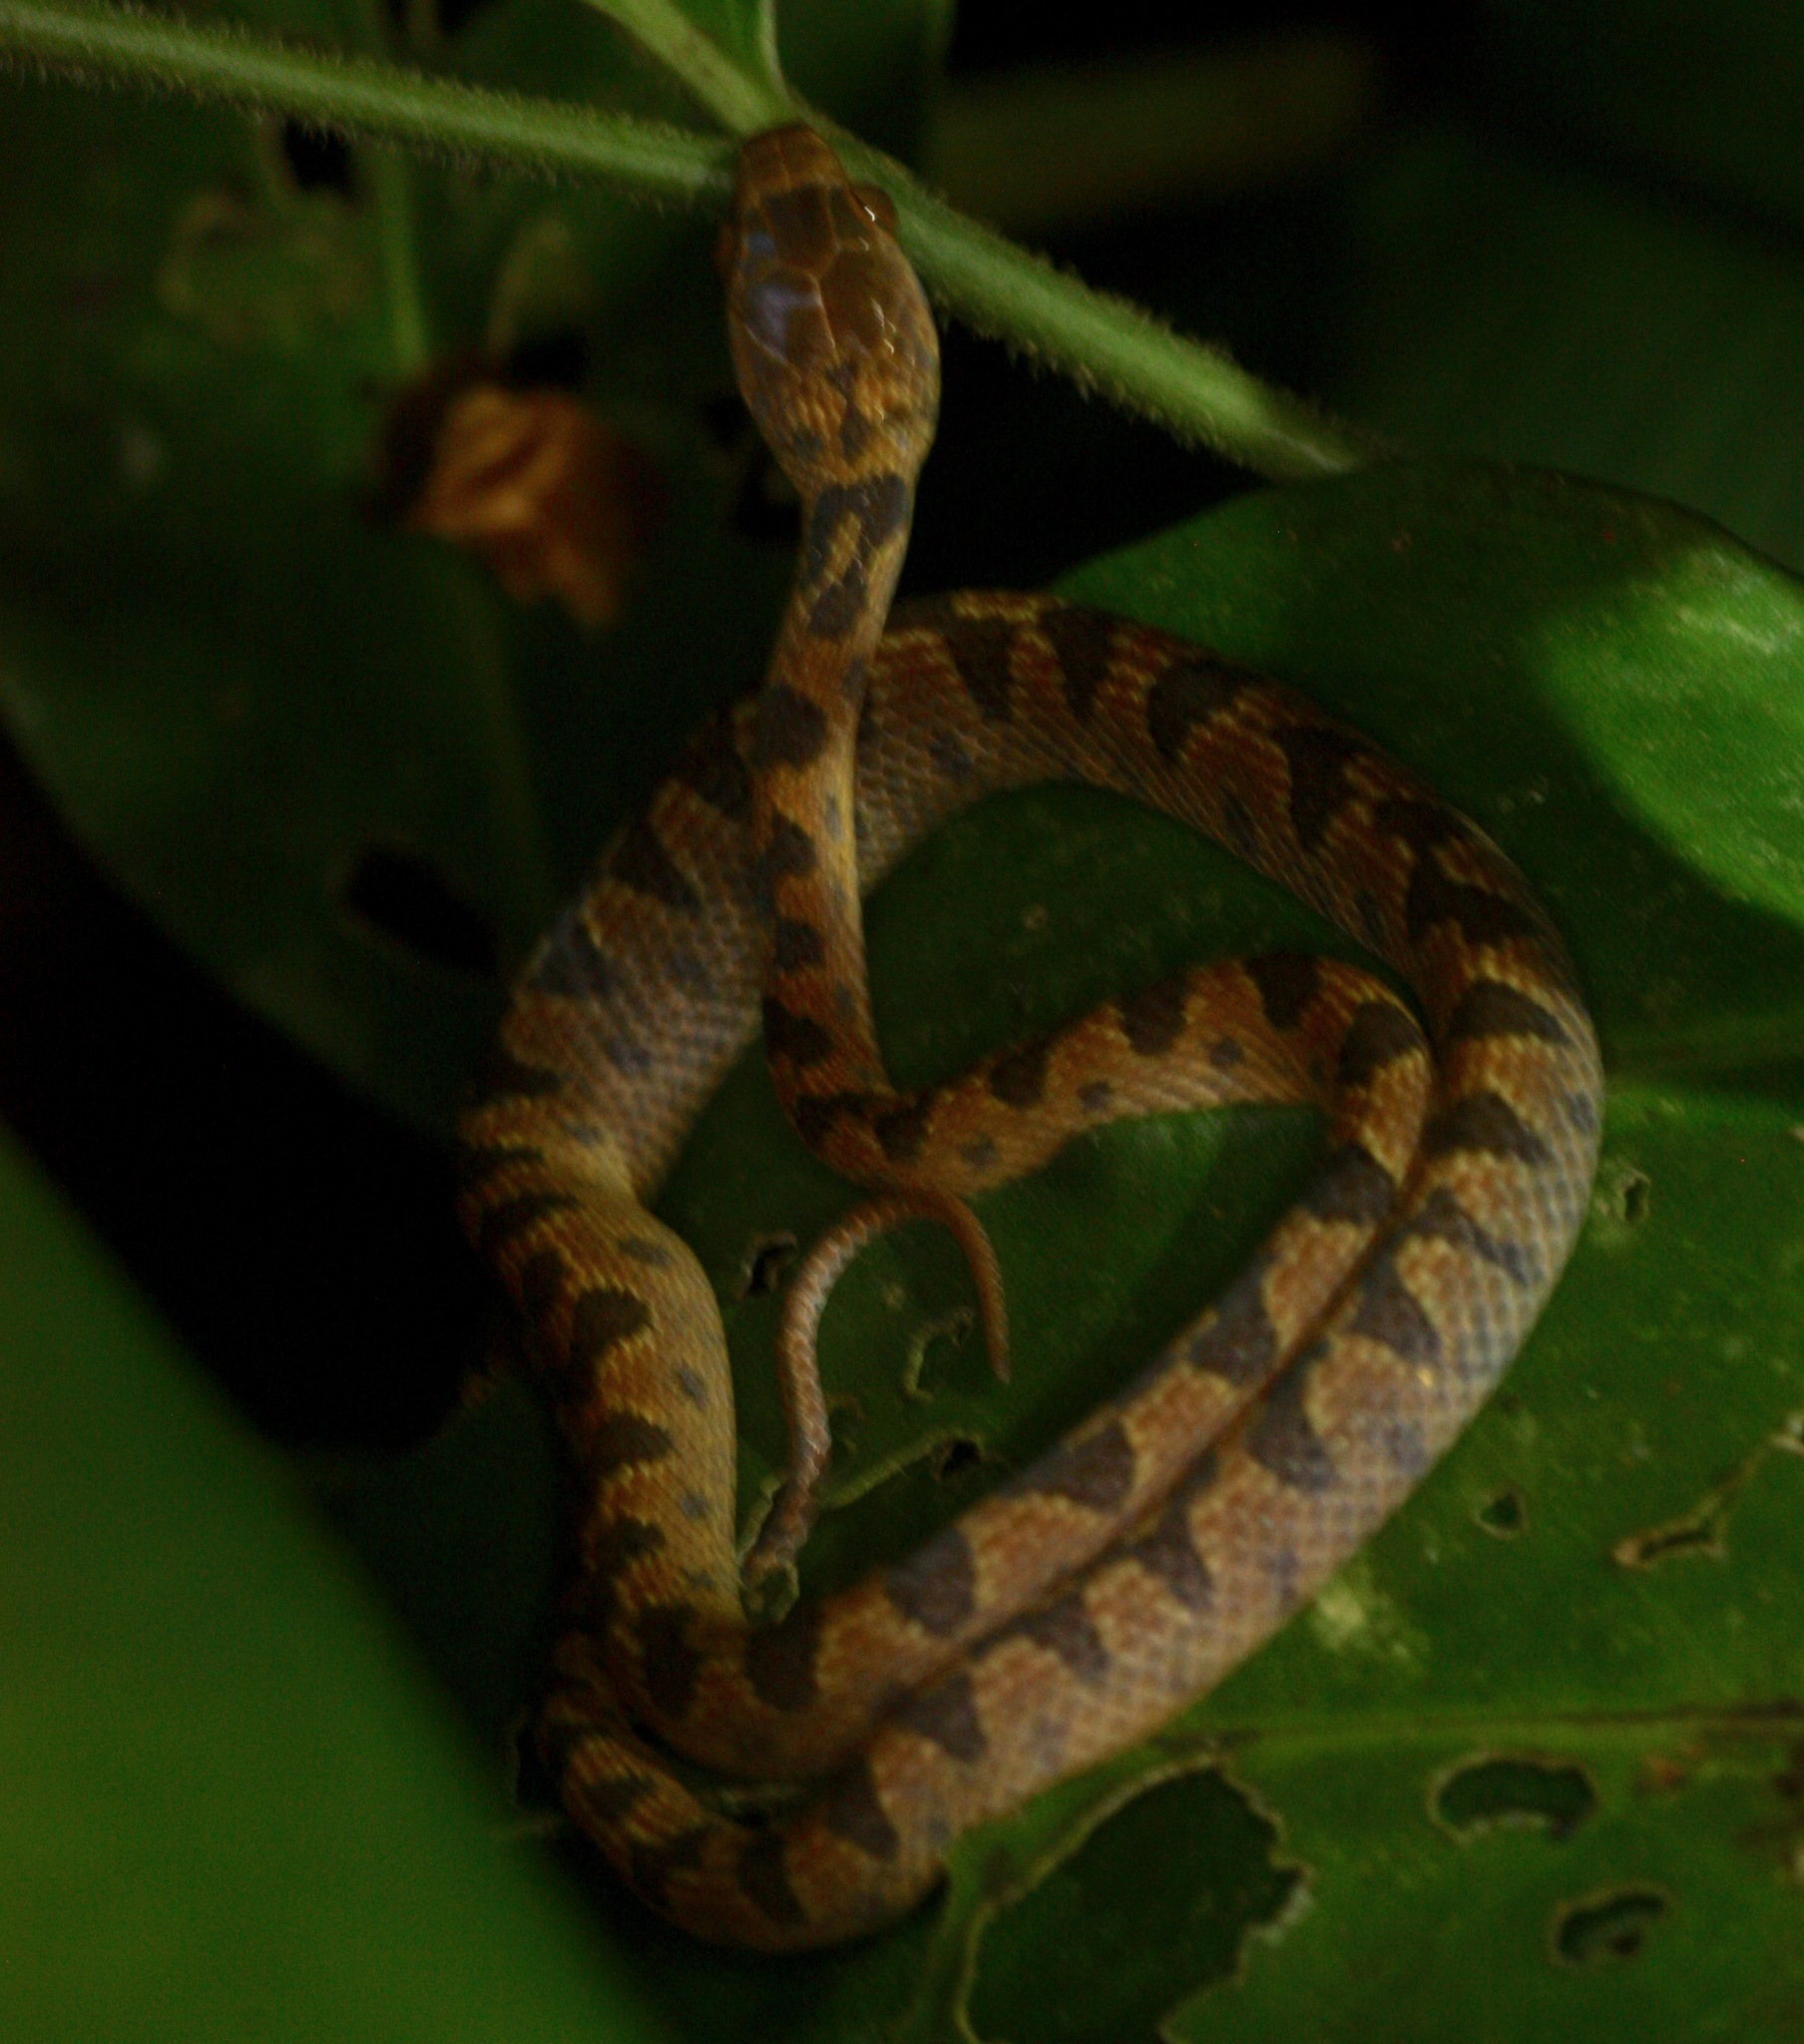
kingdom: Animalia
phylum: Chordata
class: Squamata
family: Colubridae
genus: Leptodeira
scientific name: Leptodeira ornata
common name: Northern cat-eyed snake
